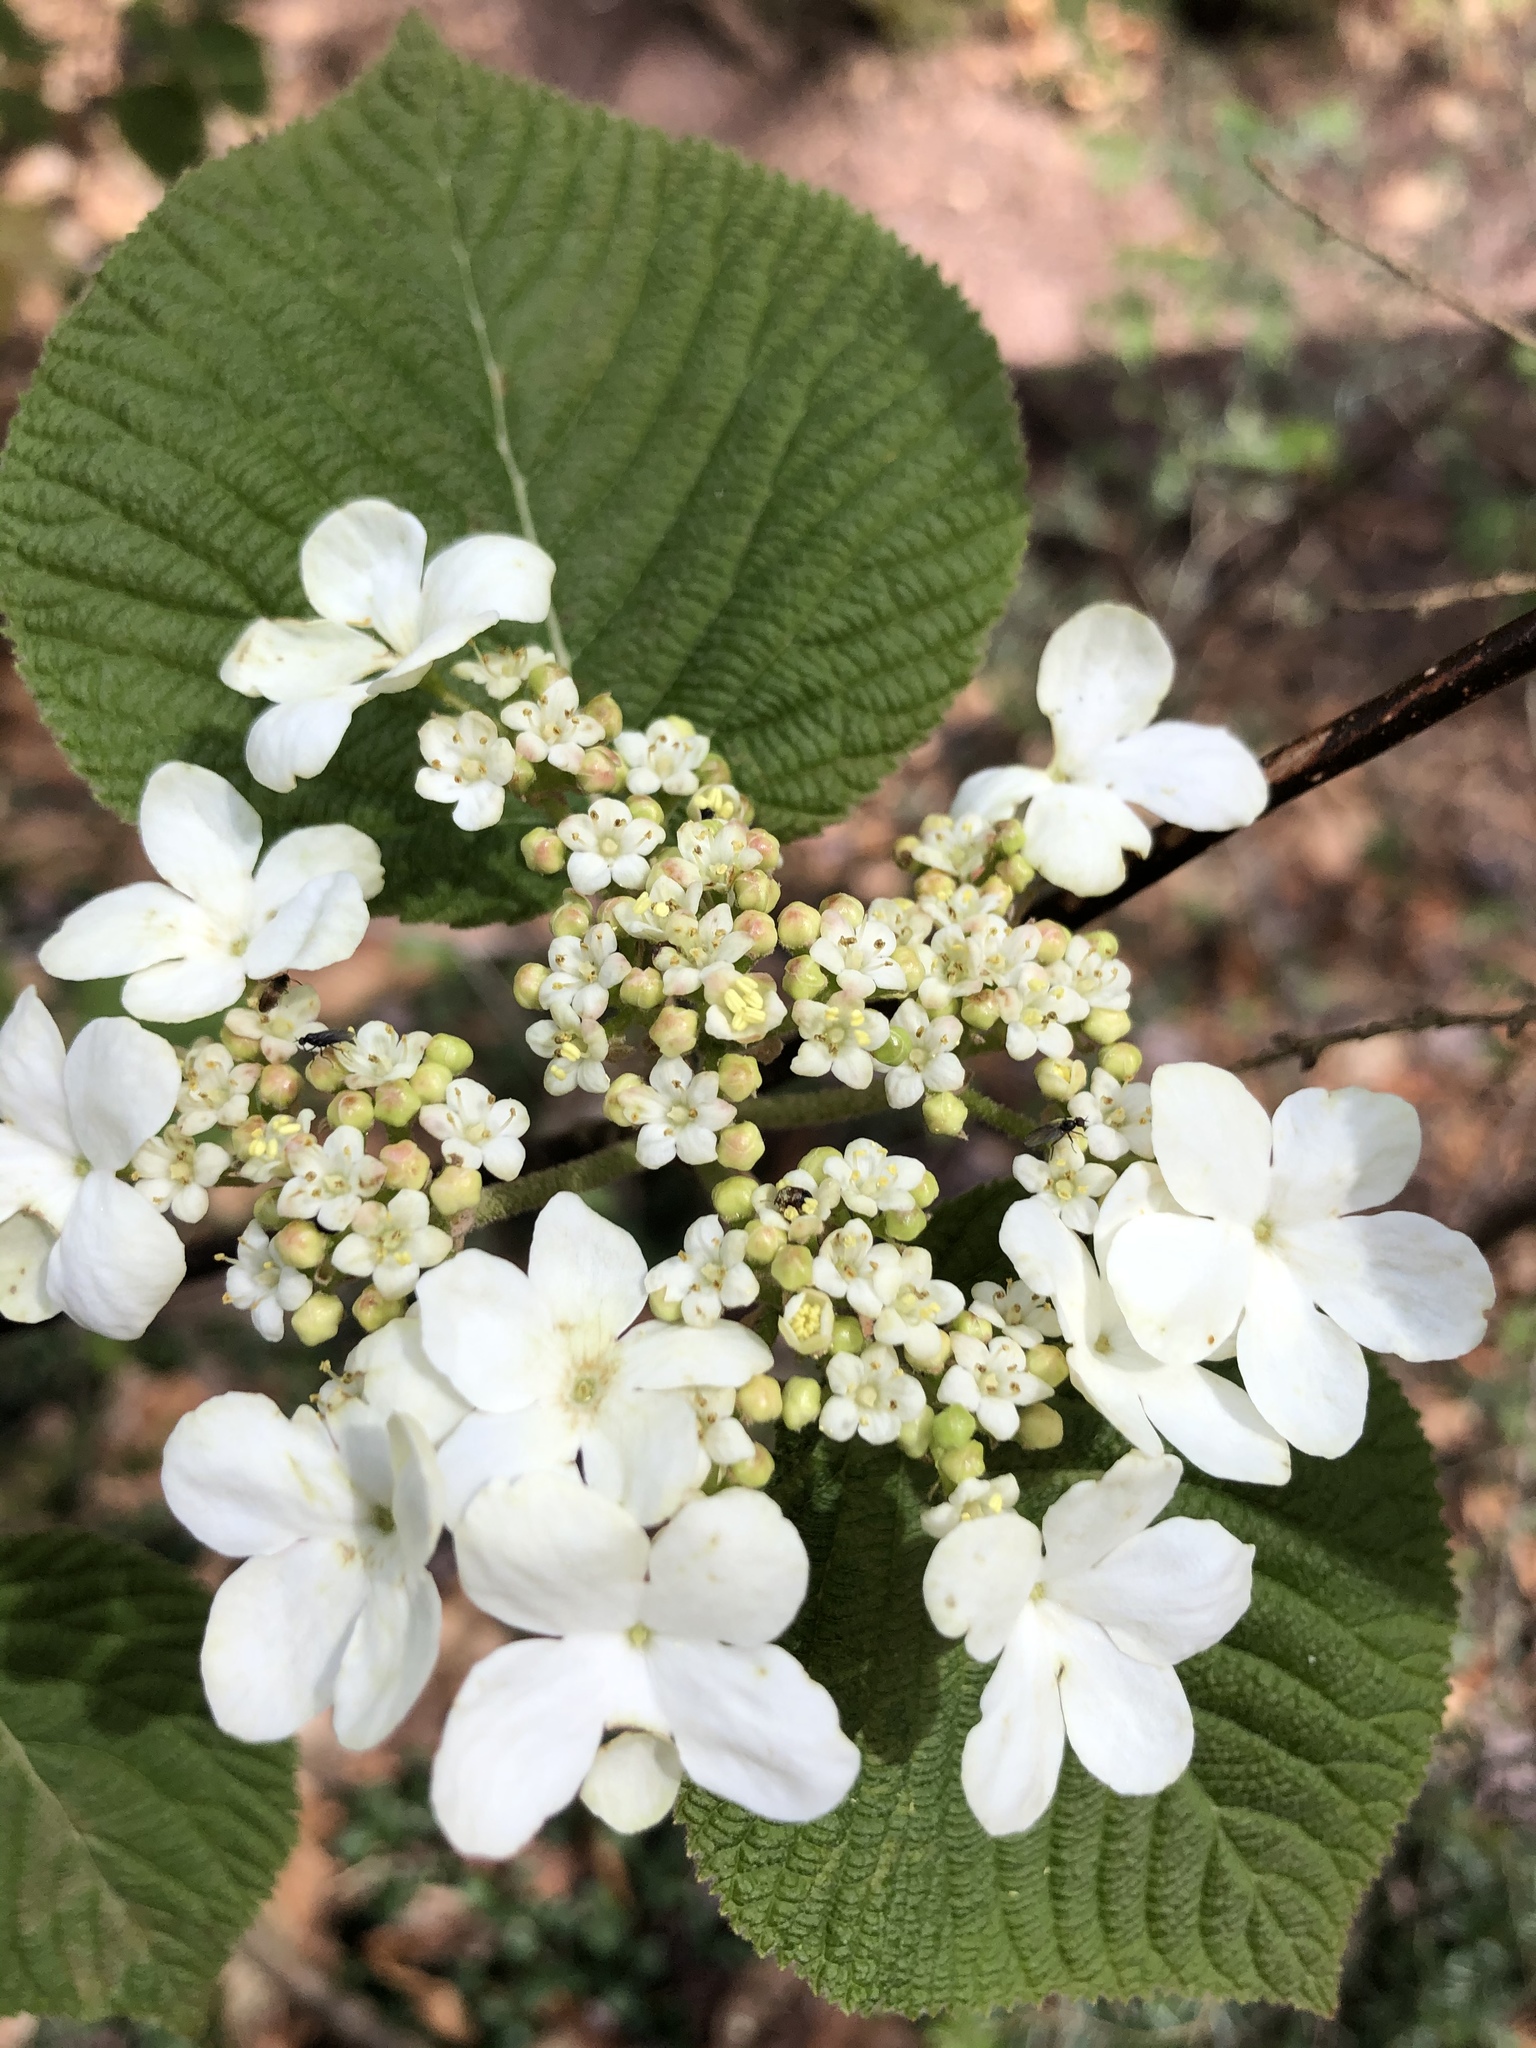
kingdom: Plantae
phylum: Tracheophyta
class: Magnoliopsida
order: Dipsacales
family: Viburnaceae
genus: Viburnum
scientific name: Viburnum lantanoides
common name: Hobblebush
